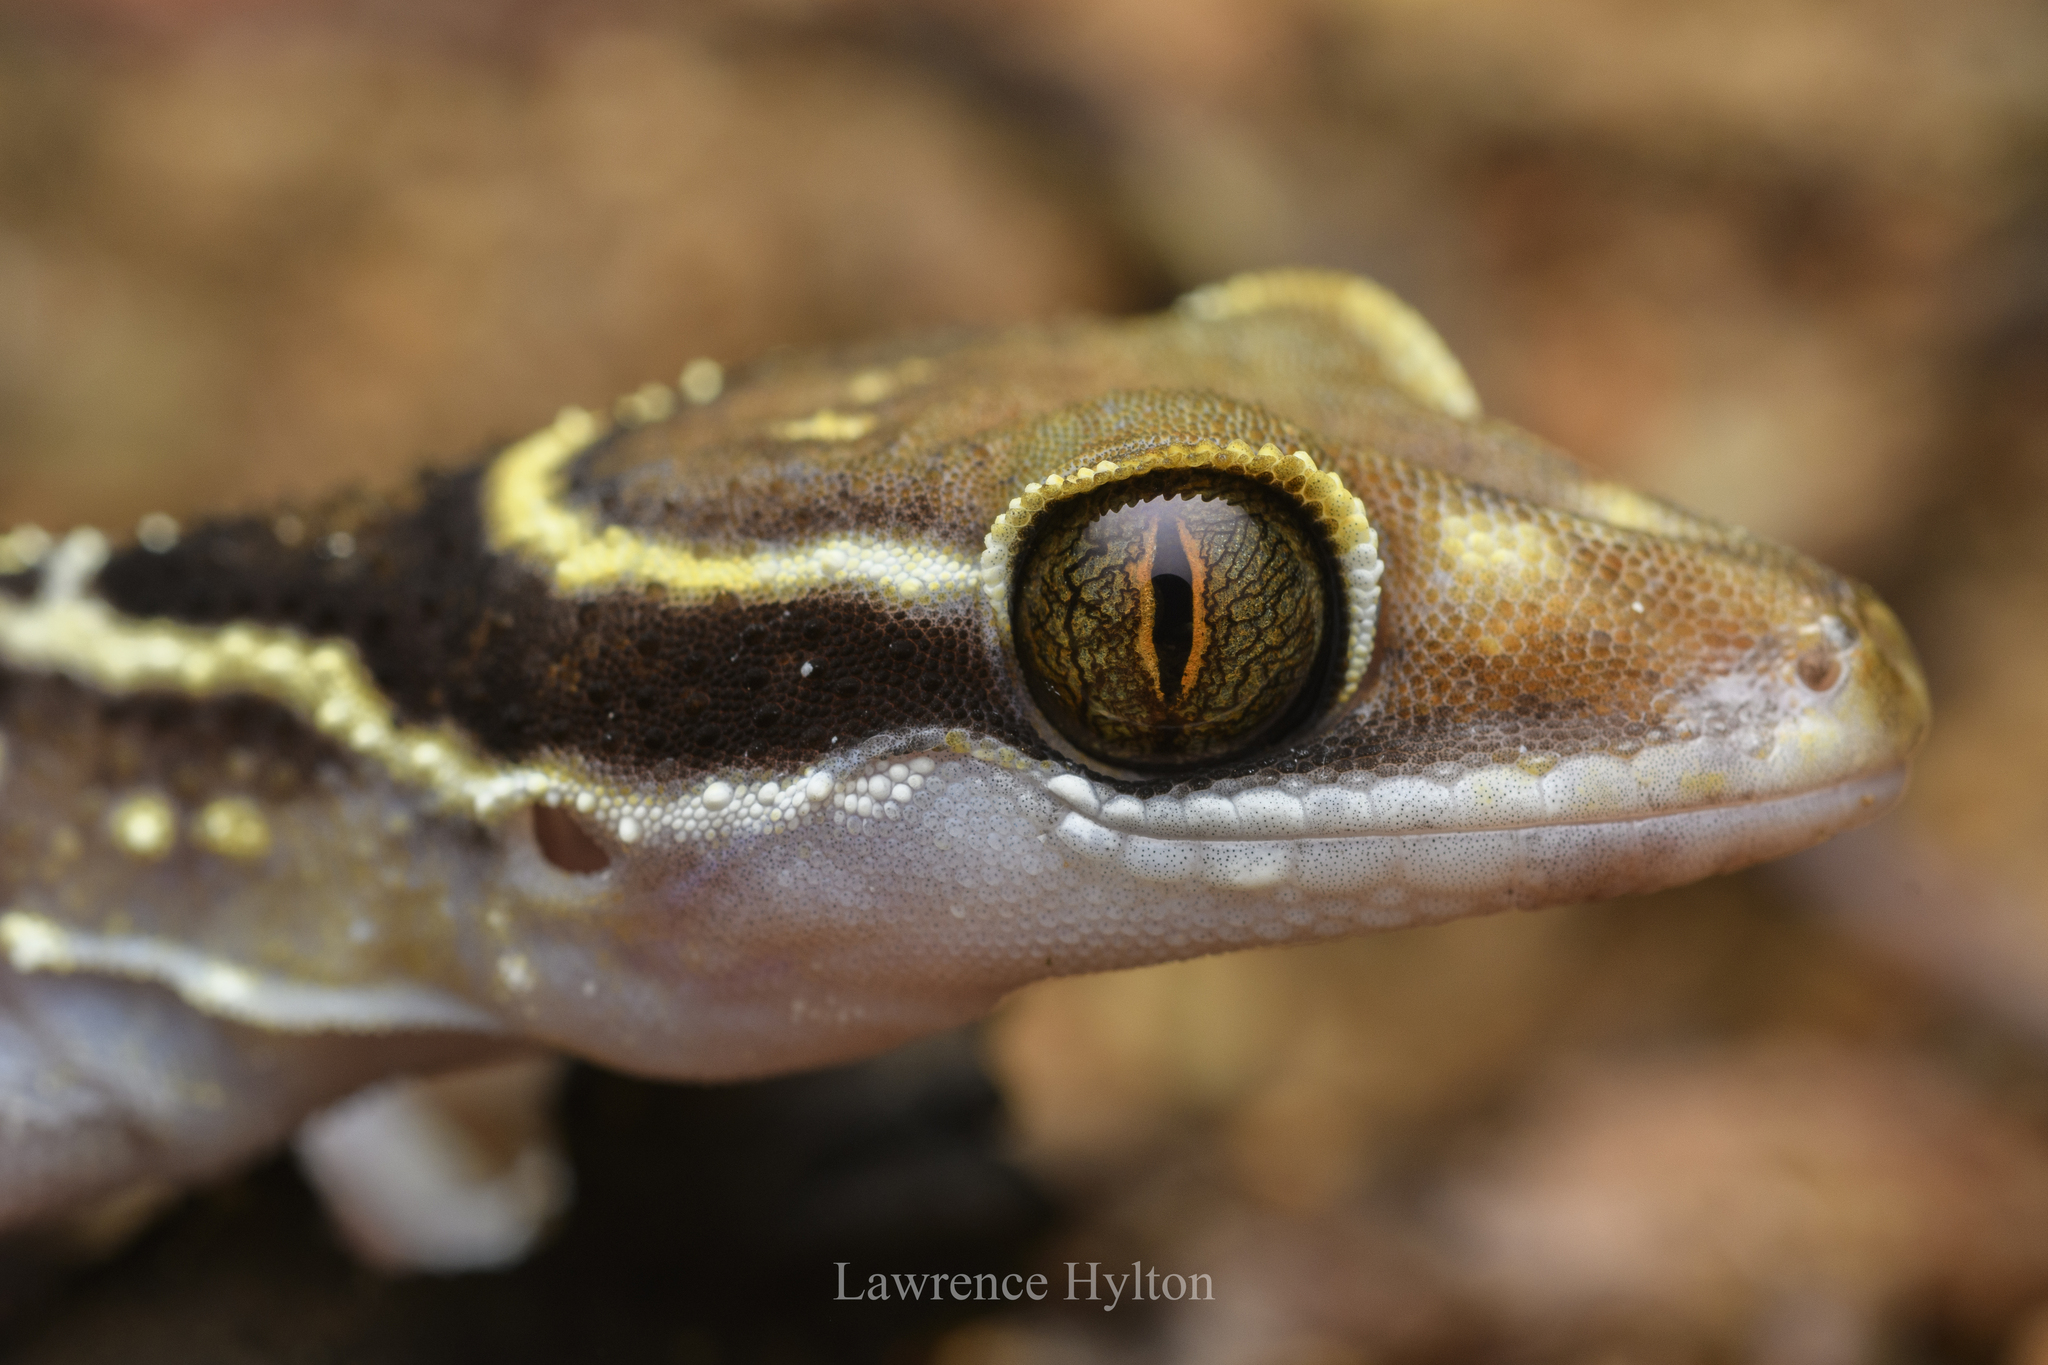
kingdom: Animalia
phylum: Chordata
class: Squamata
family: Gekkonidae
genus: Cyrtodactylus
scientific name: Cyrtodactylus oldhami
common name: Oldham's bow-fingered gecko
